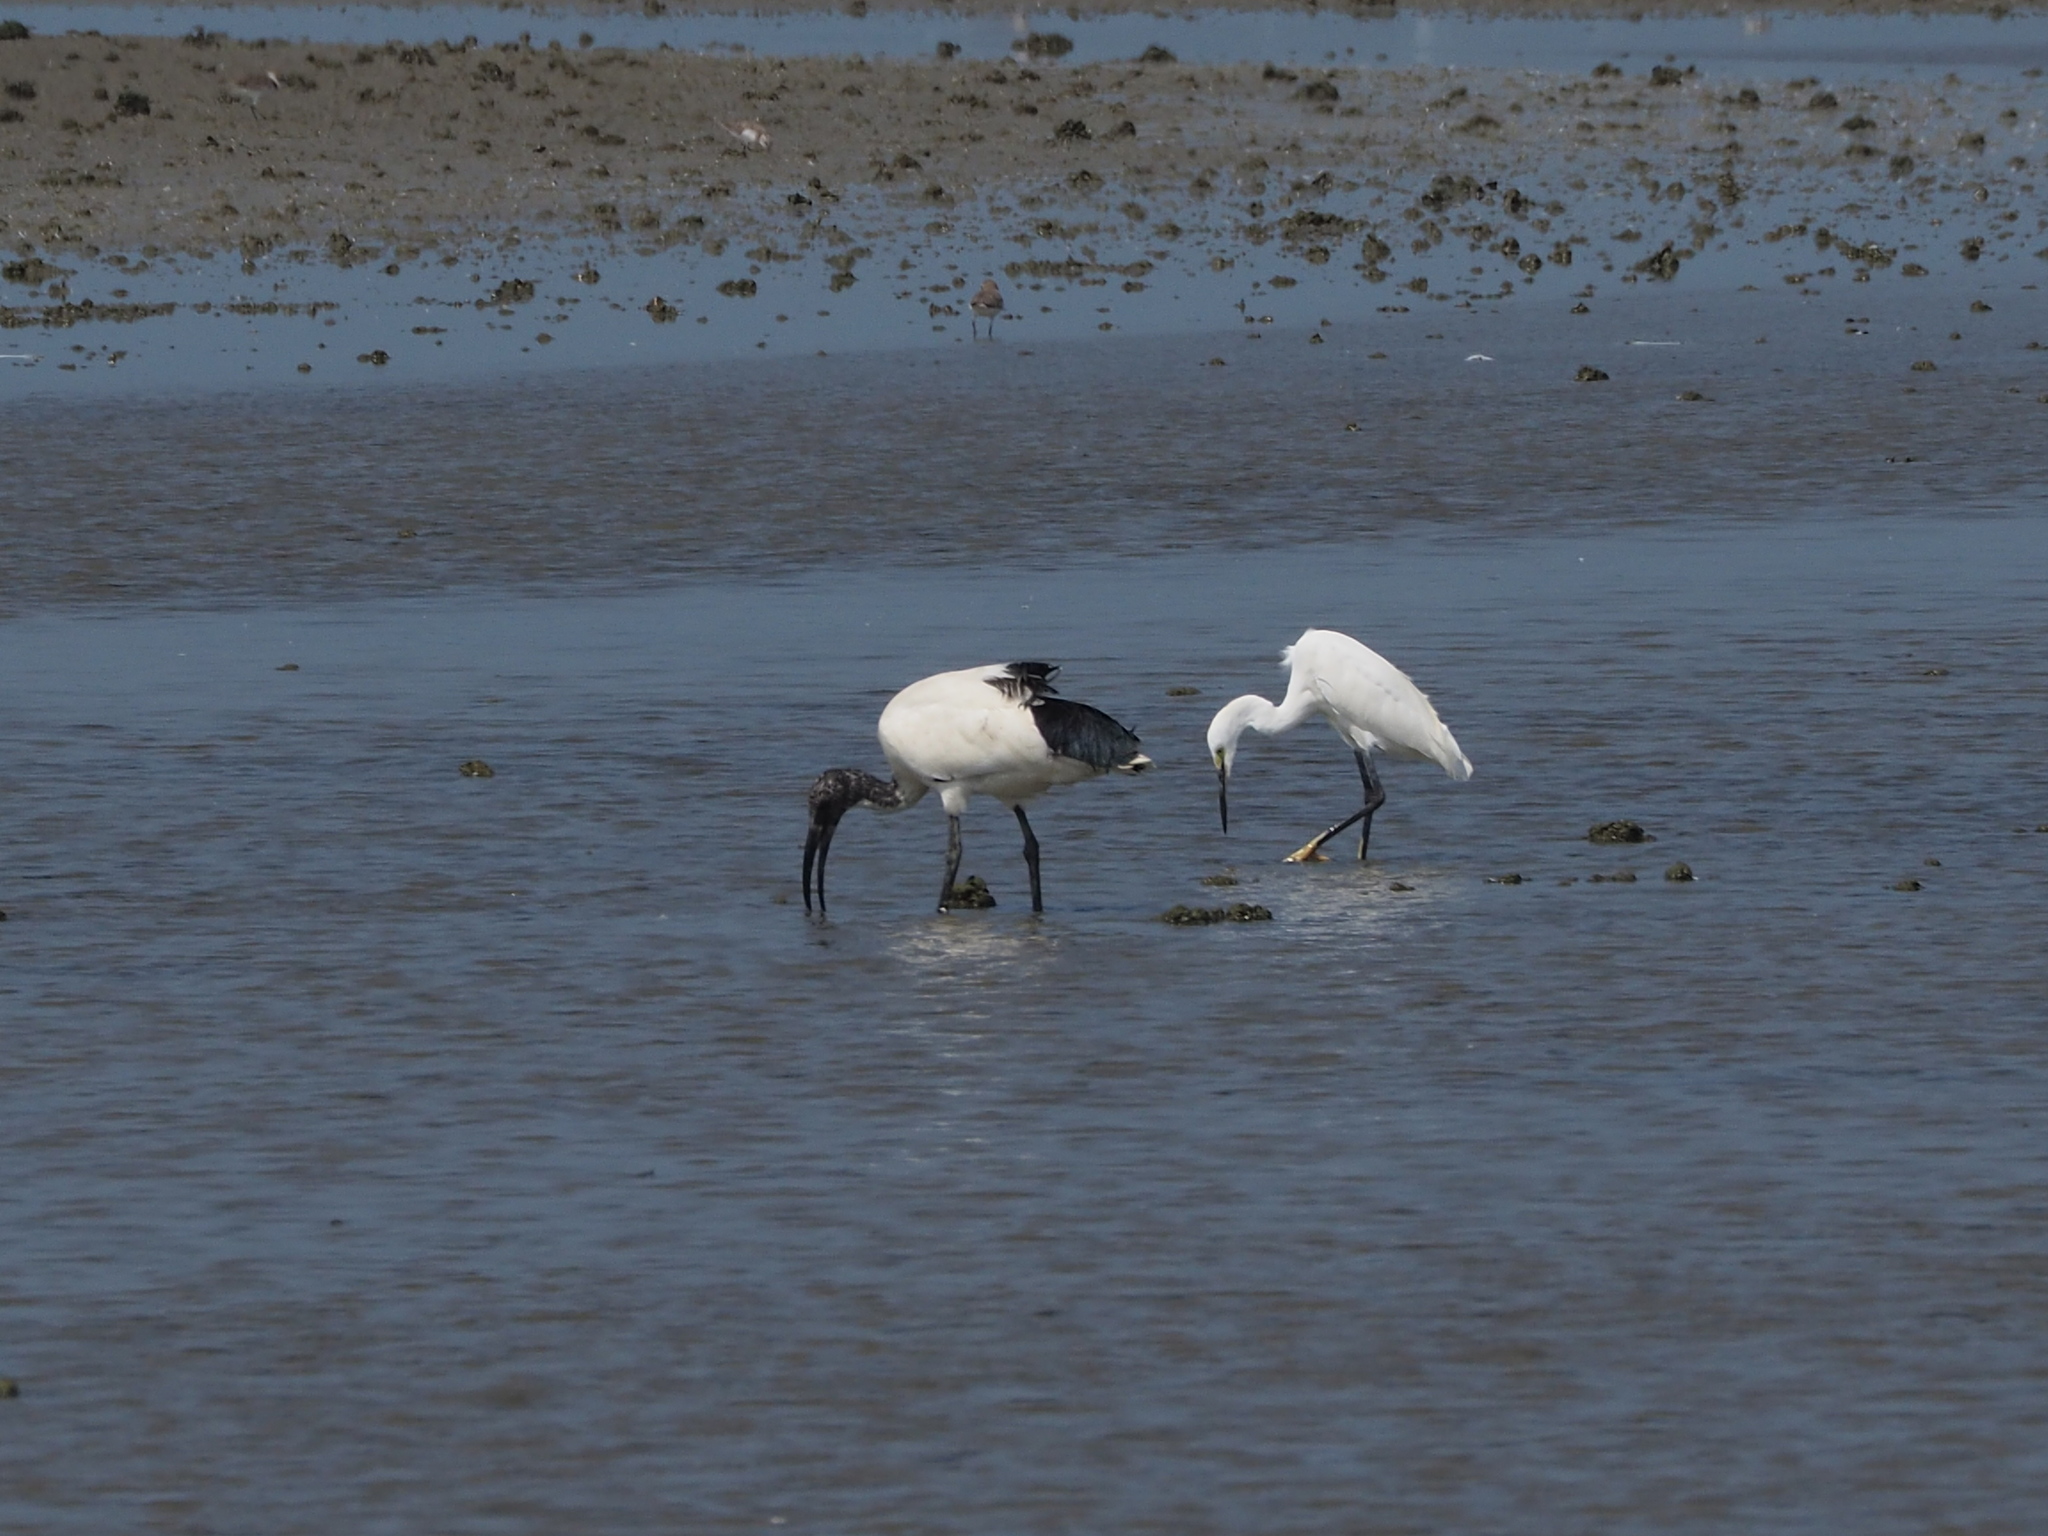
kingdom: Animalia
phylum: Chordata
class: Aves
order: Pelecaniformes
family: Threskiornithidae
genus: Threskiornis
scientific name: Threskiornis aethiopicus
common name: Sacred ibis
